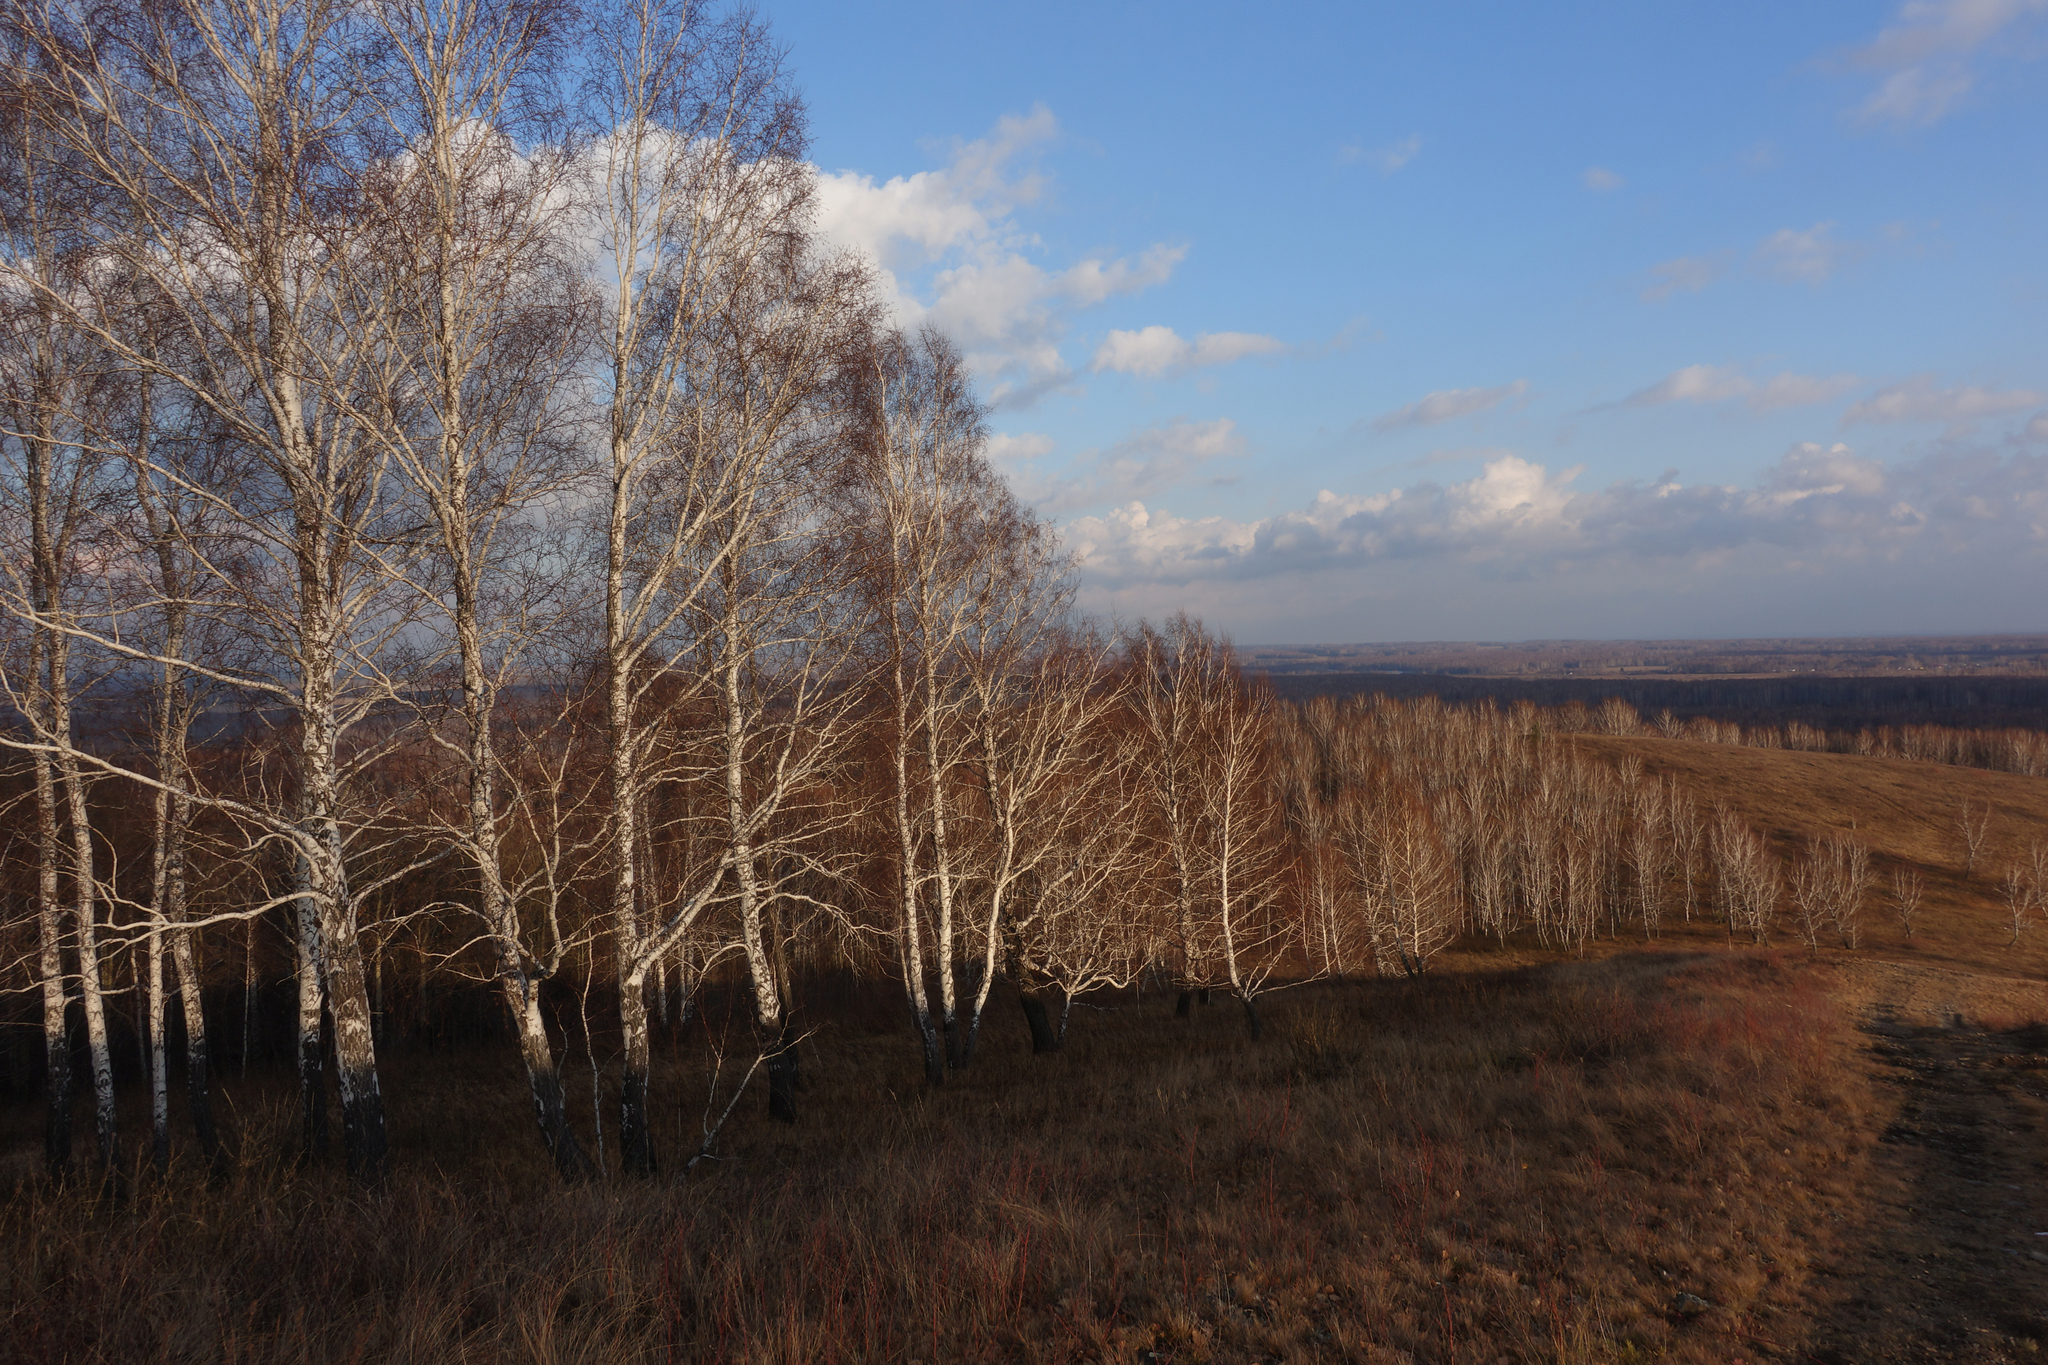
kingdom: Plantae
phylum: Tracheophyta
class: Magnoliopsida
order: Fagales
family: Betulaceae
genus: Betula
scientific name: Betula pendula
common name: Silver birch
